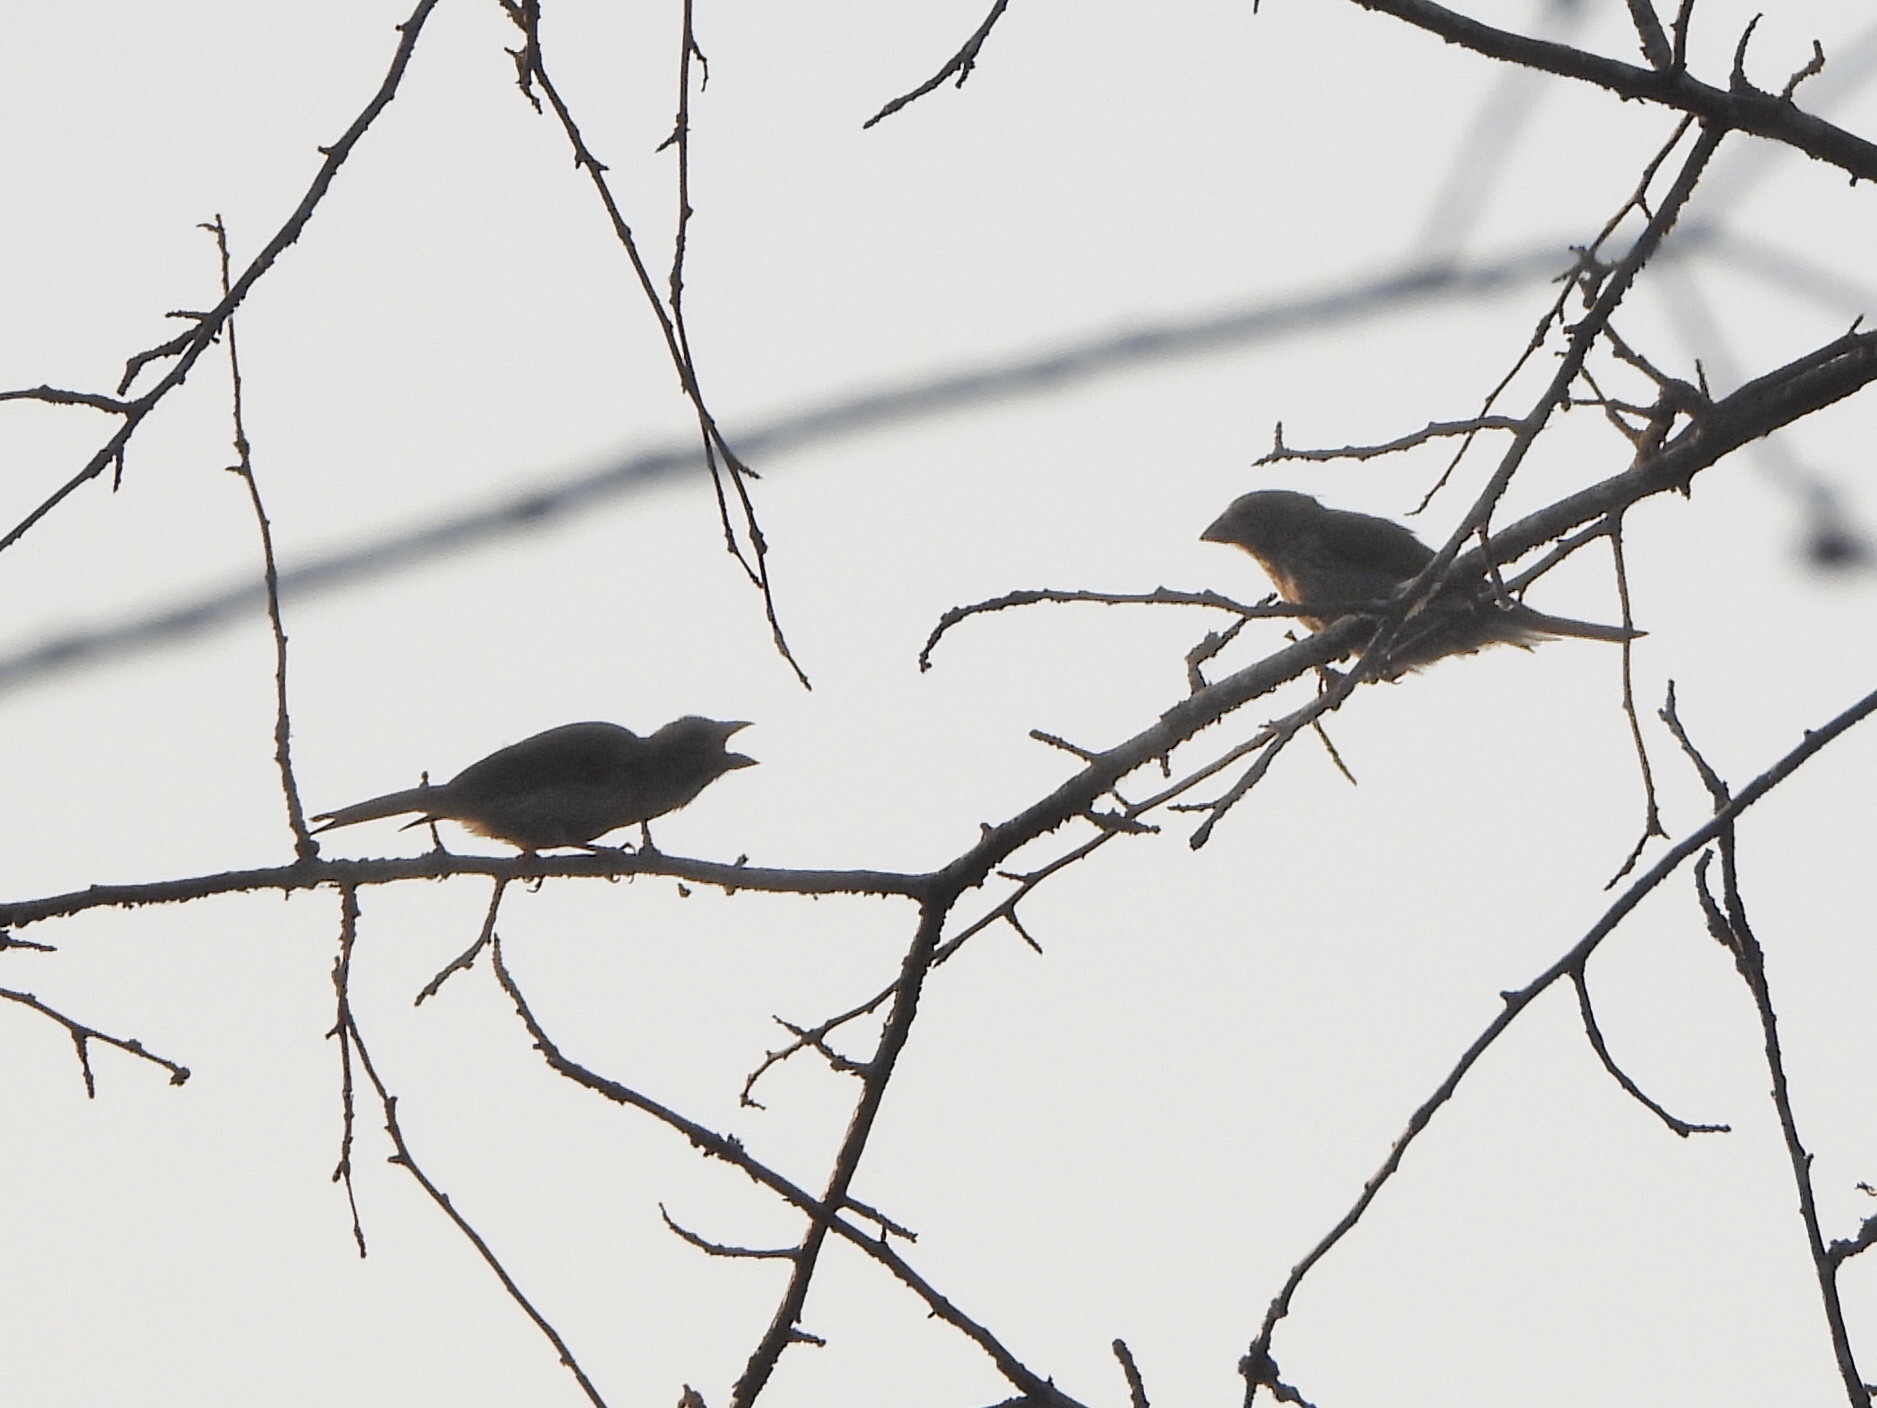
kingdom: Animalia
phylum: Chordata
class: Aves
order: Passeriformes
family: Fringillidae
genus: Haemorhous
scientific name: Haemorhous purpureus
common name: Purple finch
